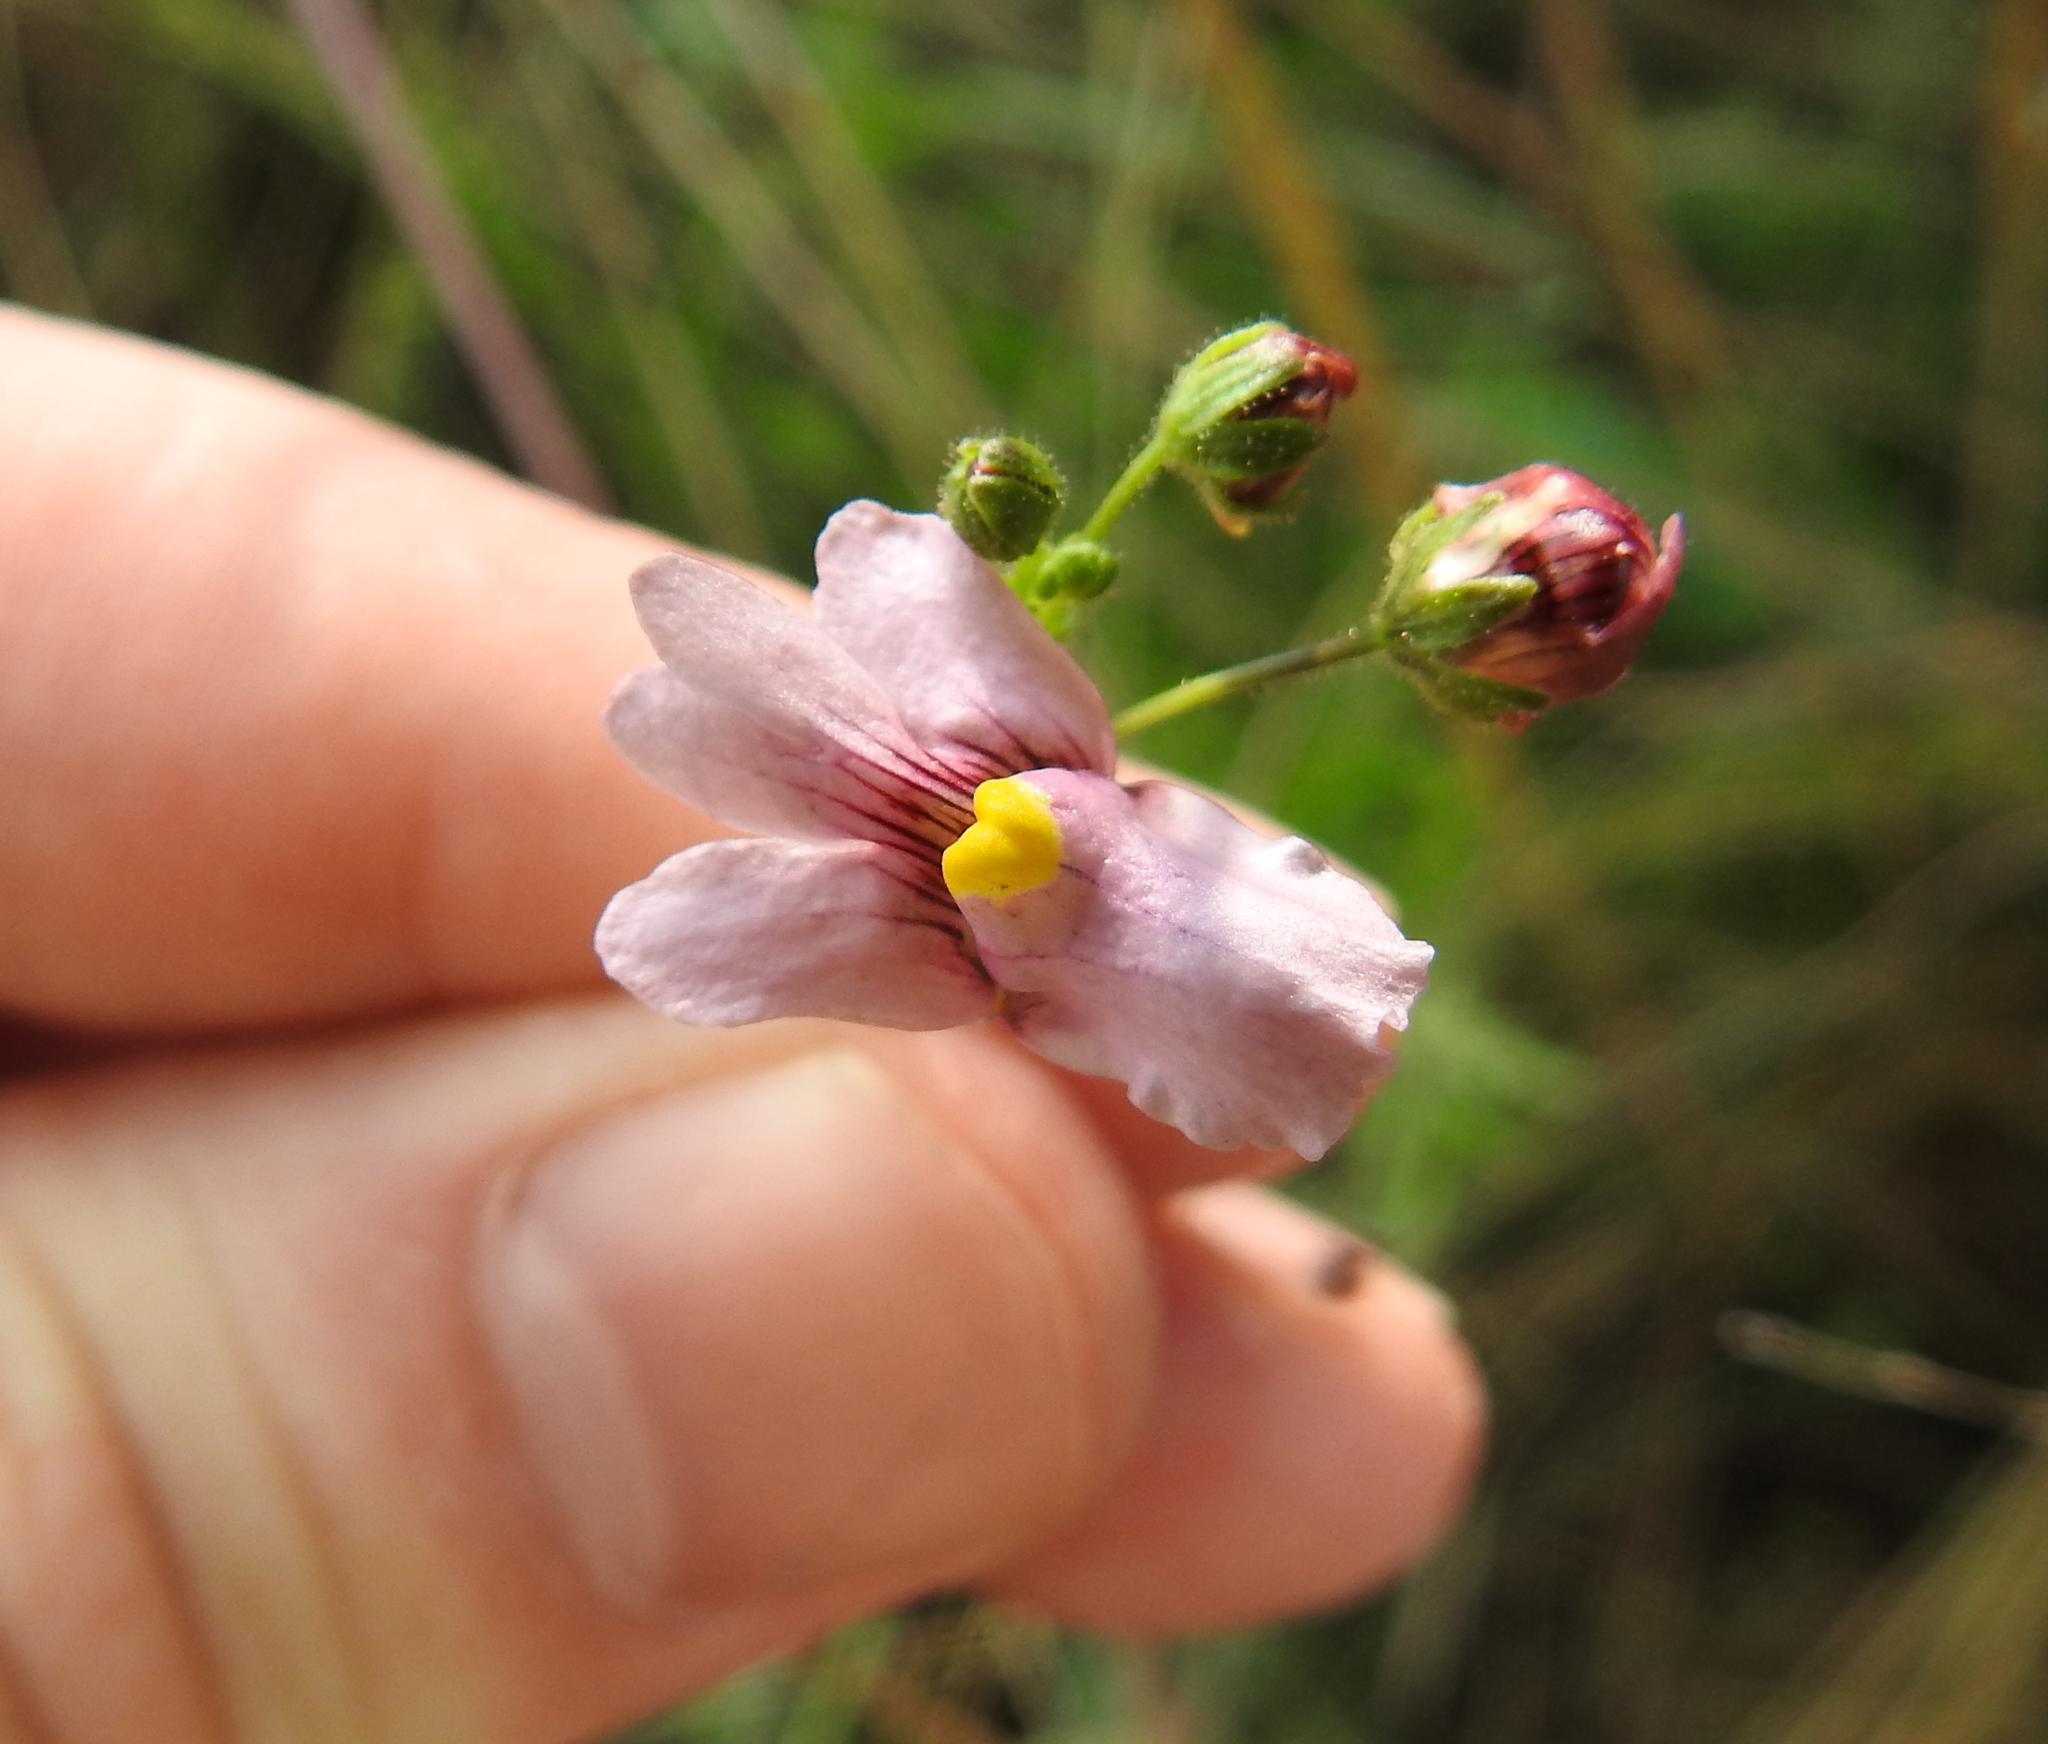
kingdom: Plantae
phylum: Tracheophyta
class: Magnoliopsida
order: Lamiales
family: Scrophulariaceae
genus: Nemesia
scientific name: Nemesia fruticans
